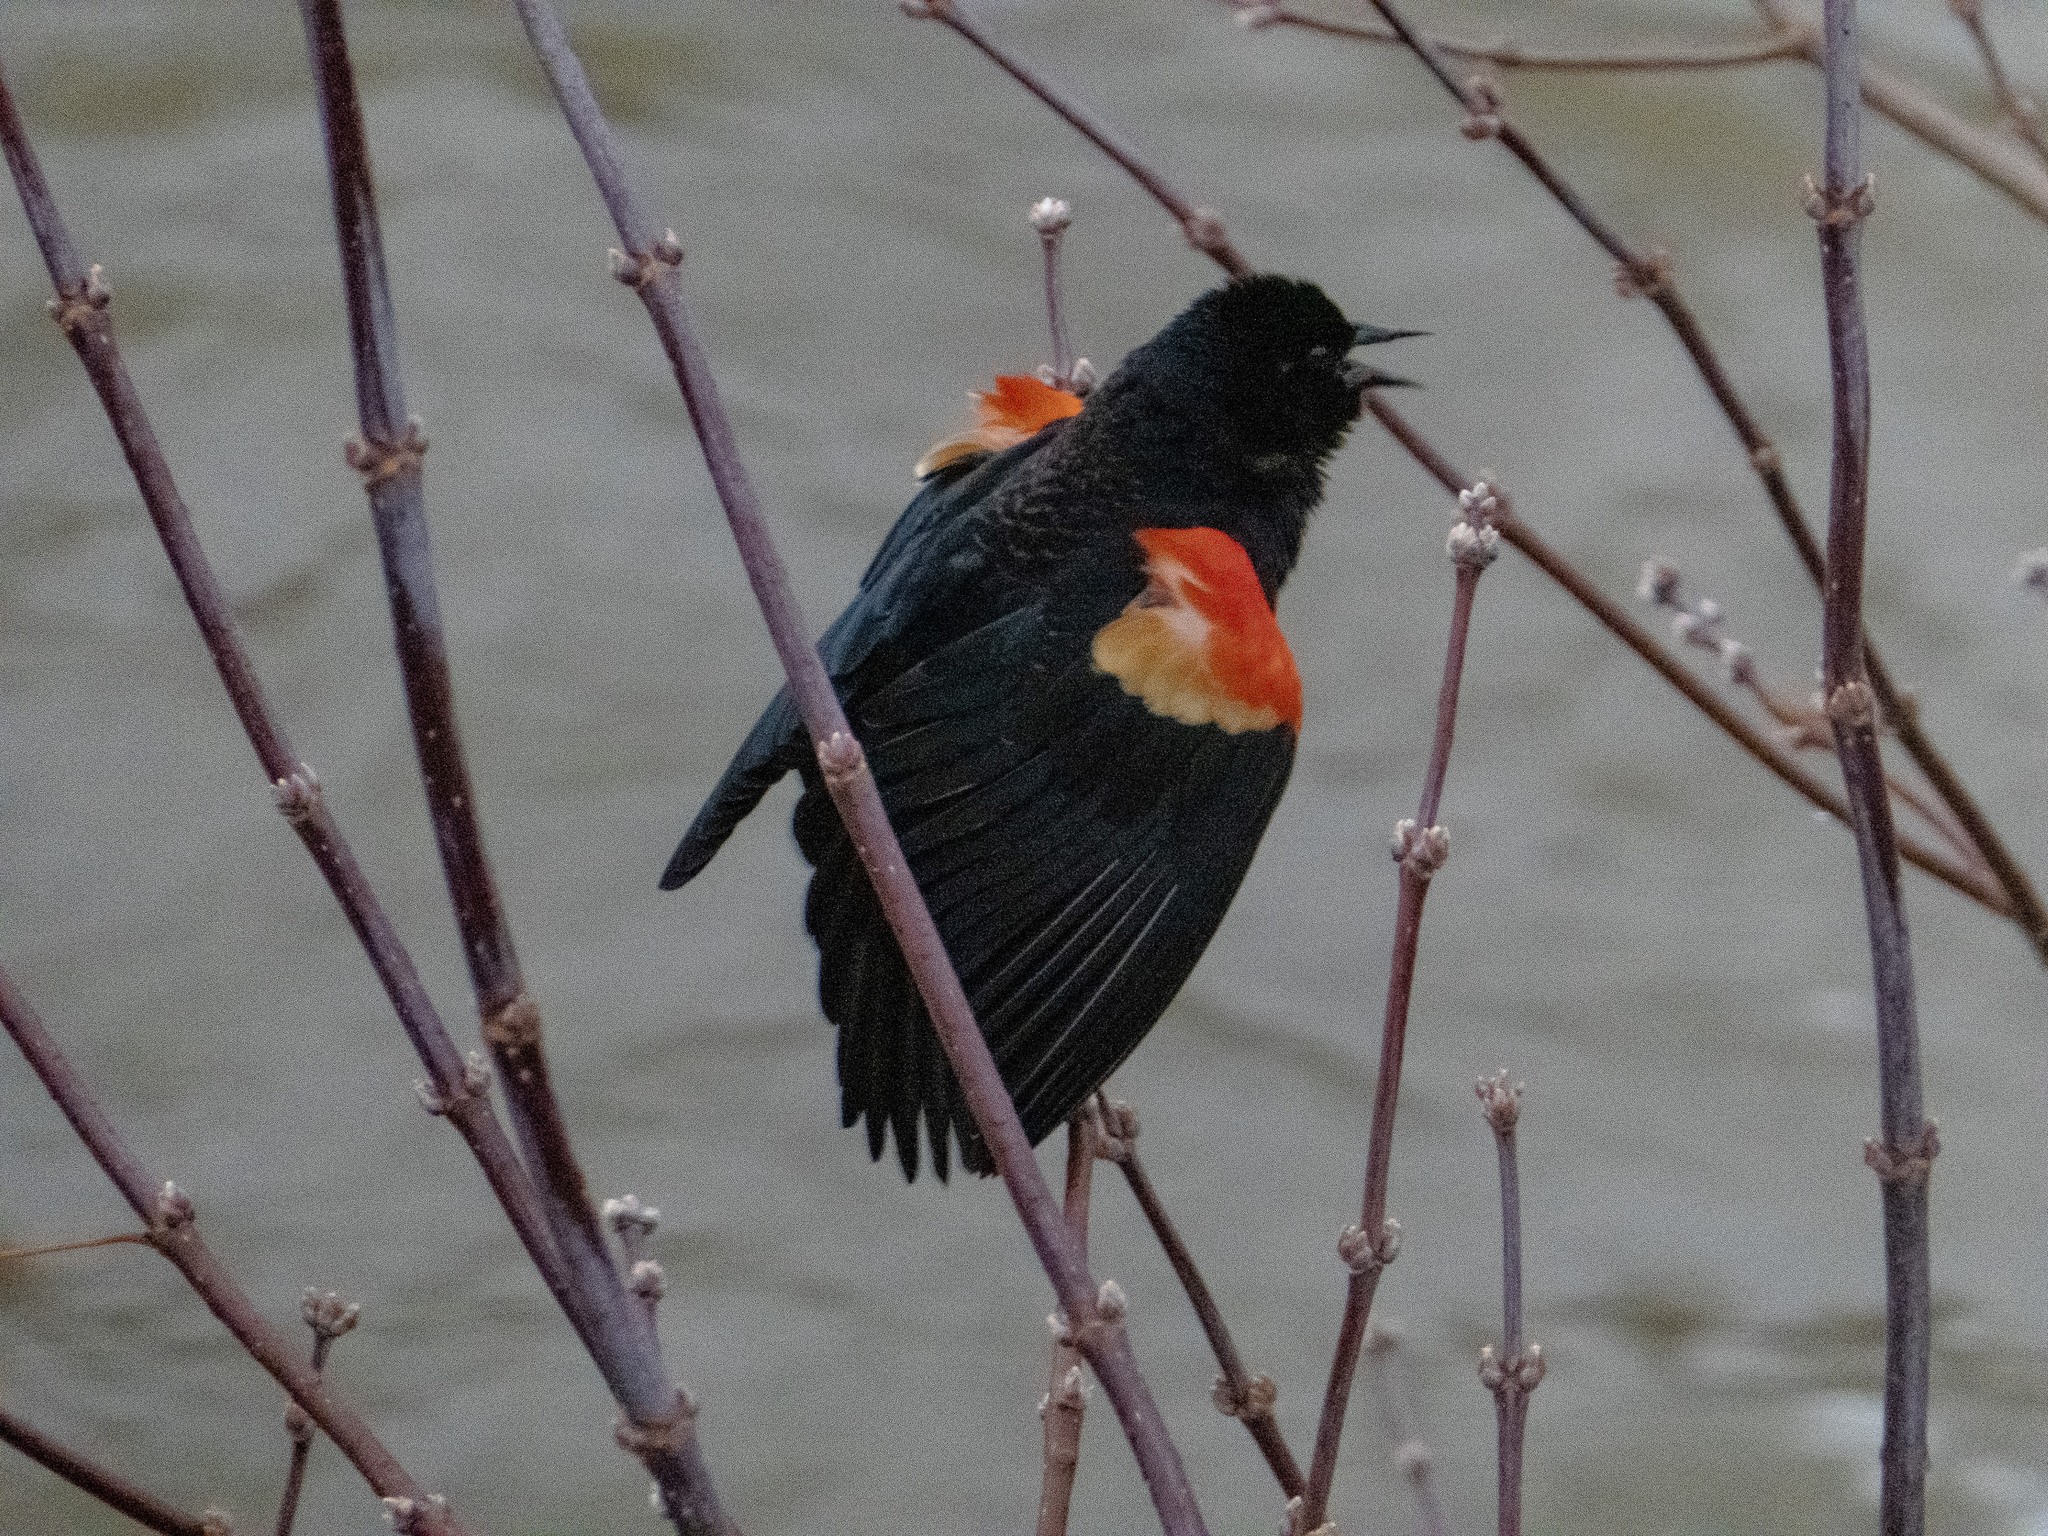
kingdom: Animalia
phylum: Chordata
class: Aves
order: Passeriformes
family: Icteridae
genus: Agelaius
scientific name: Agelaius phoeniceus
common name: Red-winged blackbird
